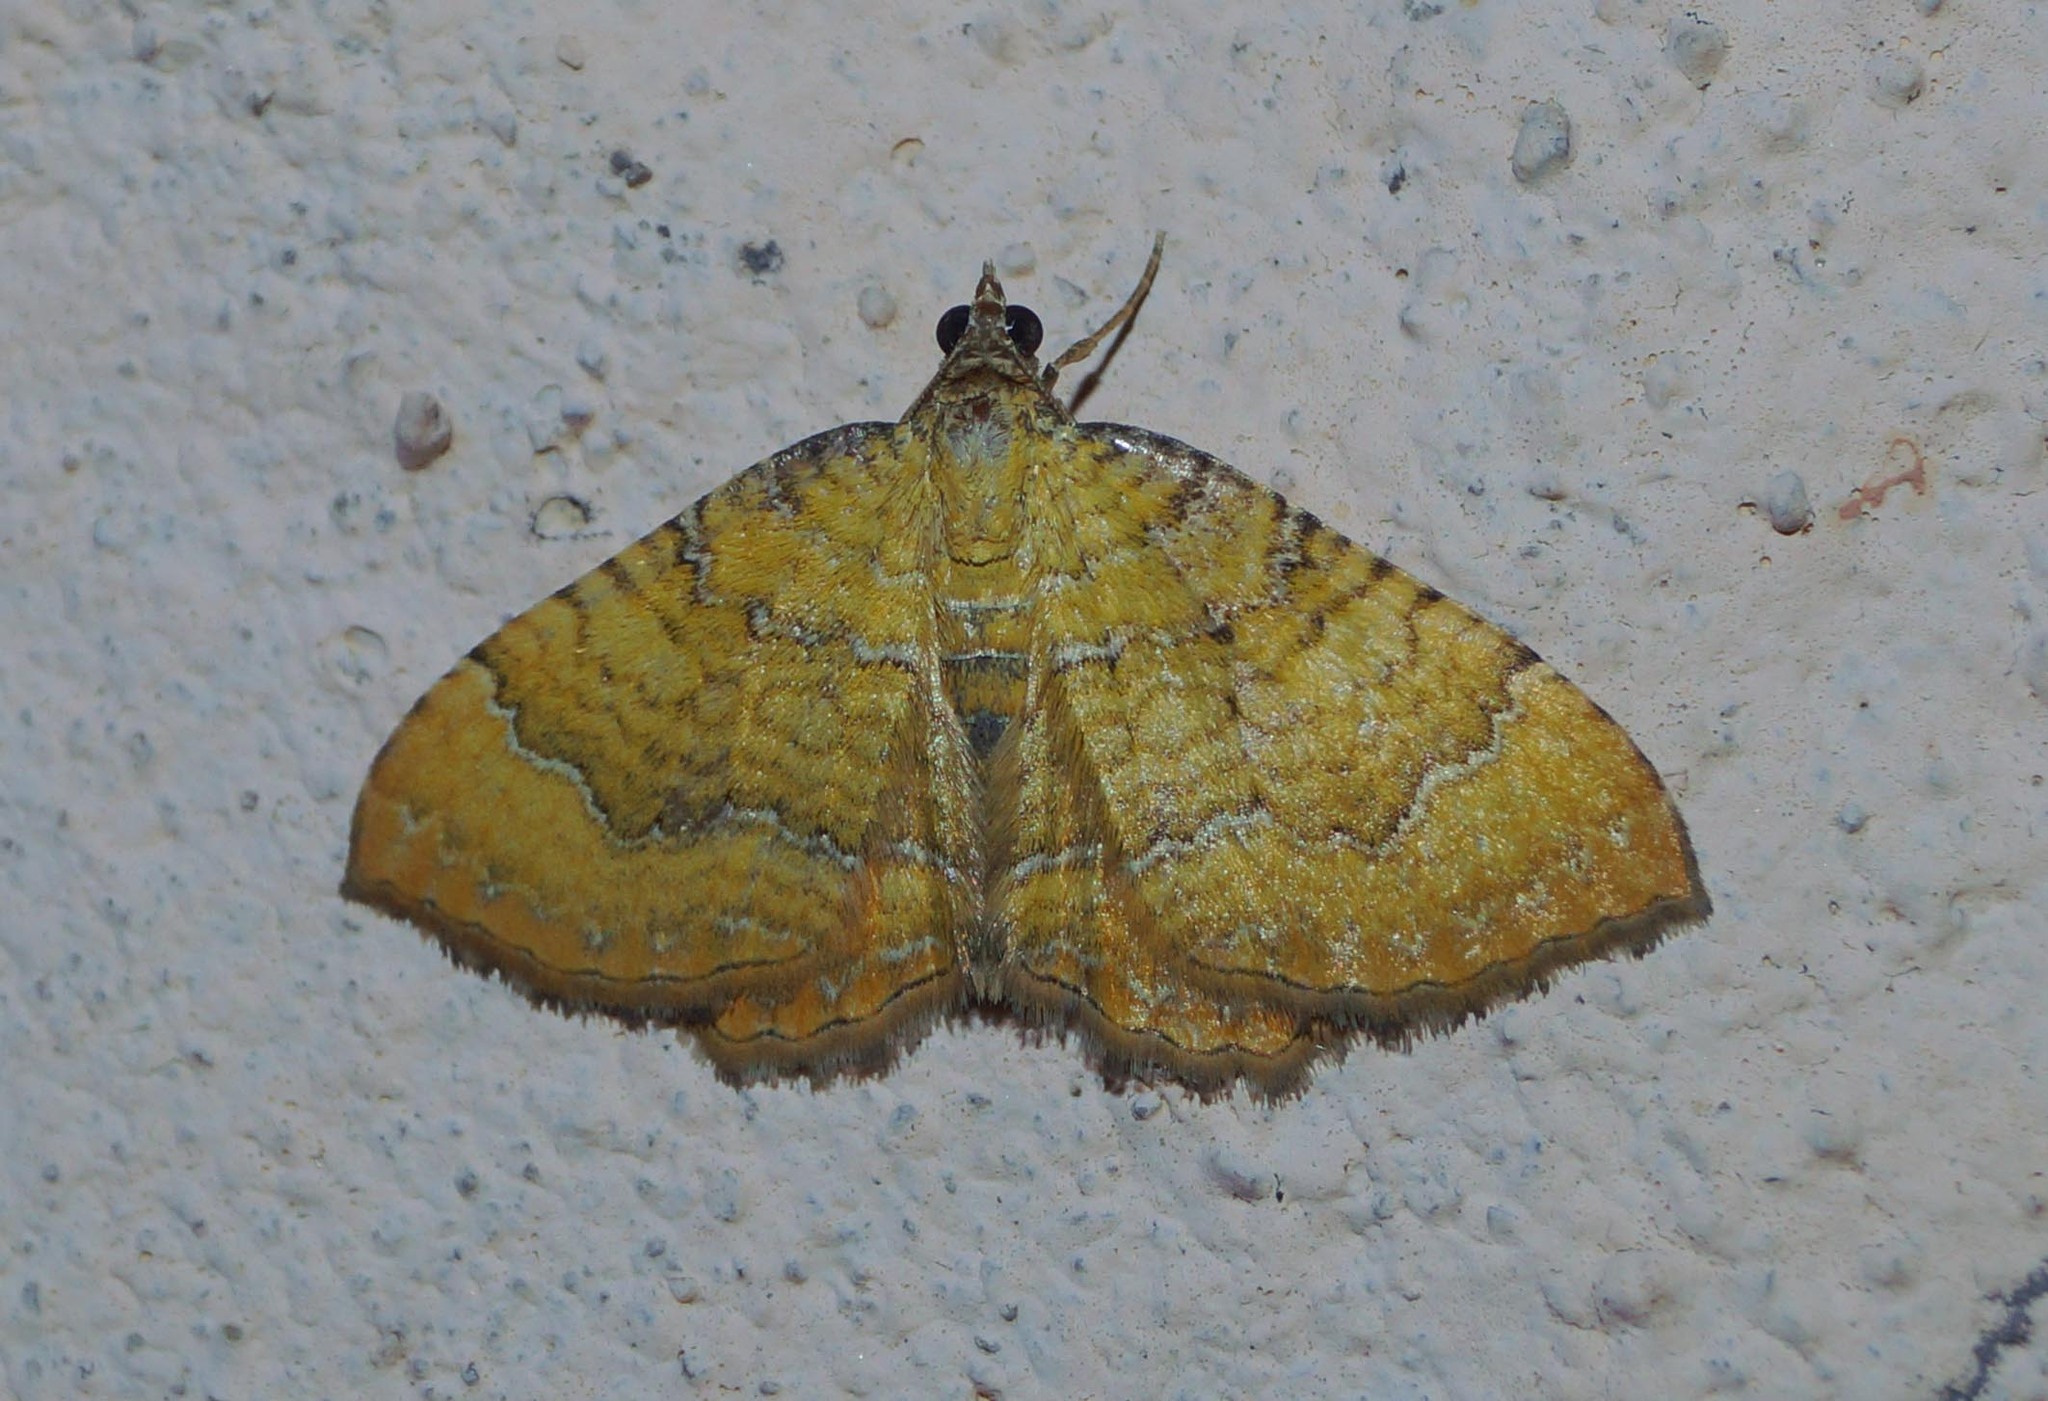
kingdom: Animalia
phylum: Arthropoda
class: Insecta
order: Lepidoptera
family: Geometridae
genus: Camptogramma
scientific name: Camptogramma bilineata
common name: Yellow shell
